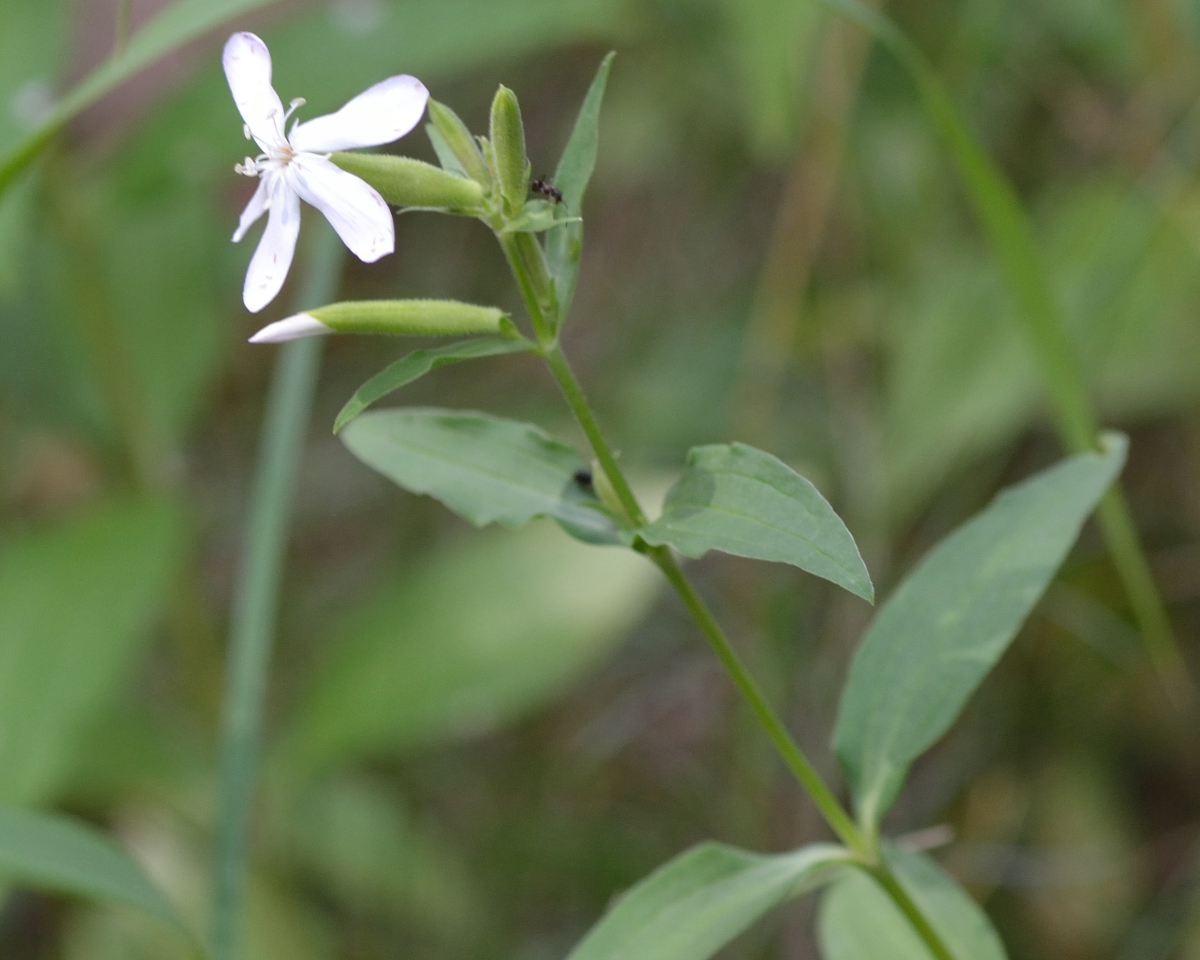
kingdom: Plantae
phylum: Tracheophyta
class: Magnoliopsida
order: Caryophyllales
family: Caryophyllaceae
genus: Saponaria
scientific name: Saponaria officinalis
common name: Soapwort
